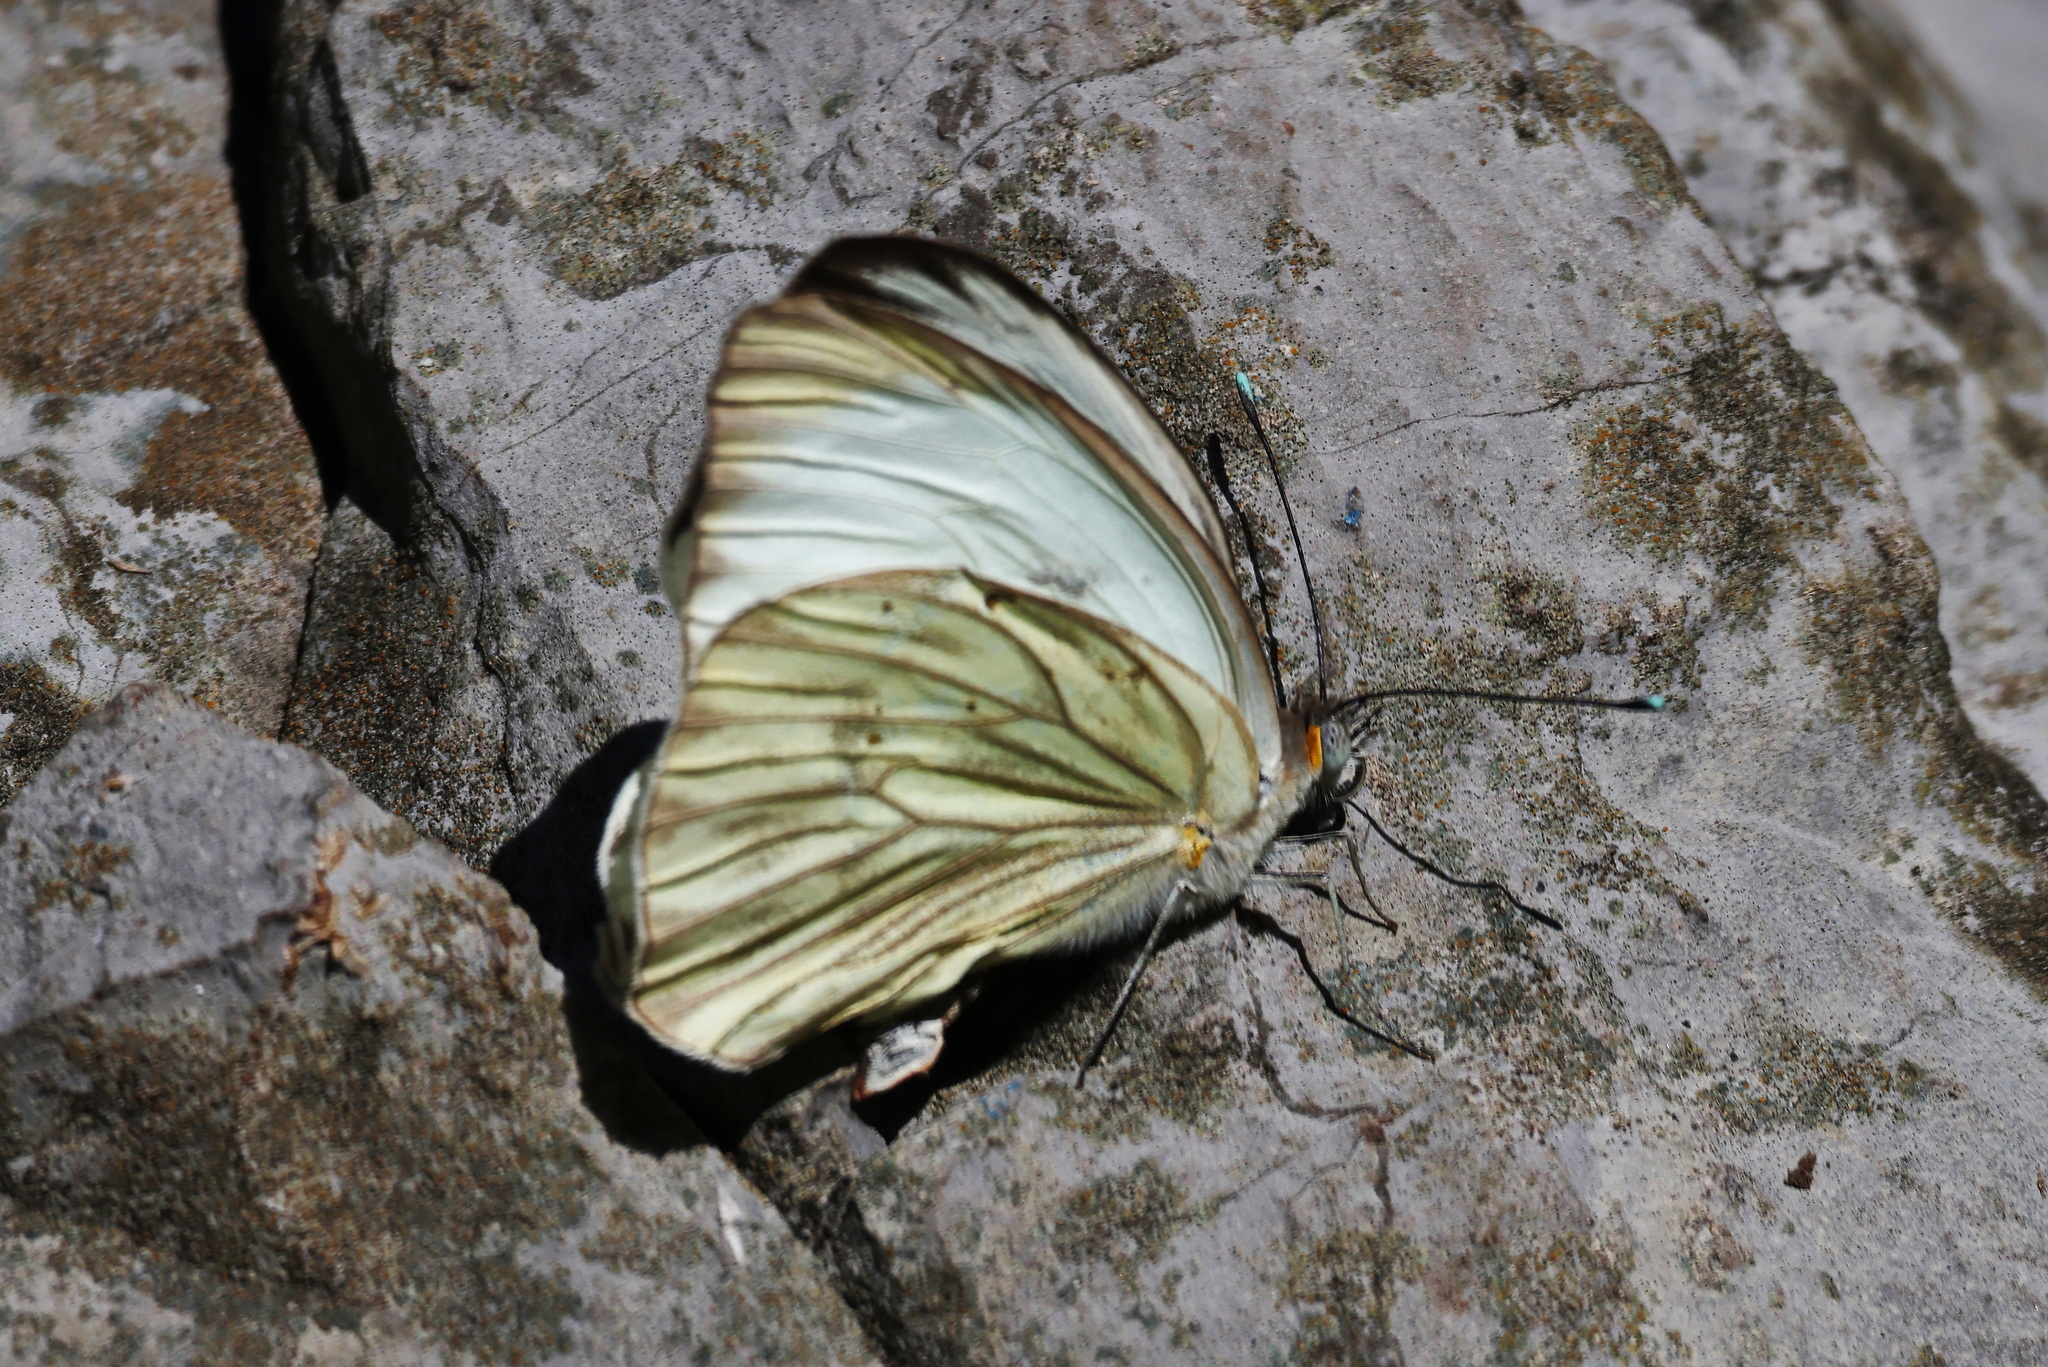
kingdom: Animalia
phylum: Arthropoda
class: Insecta
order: Lepidoptera
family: Pieridae
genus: Ascia
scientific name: Ascia monuste
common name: Great southern white
